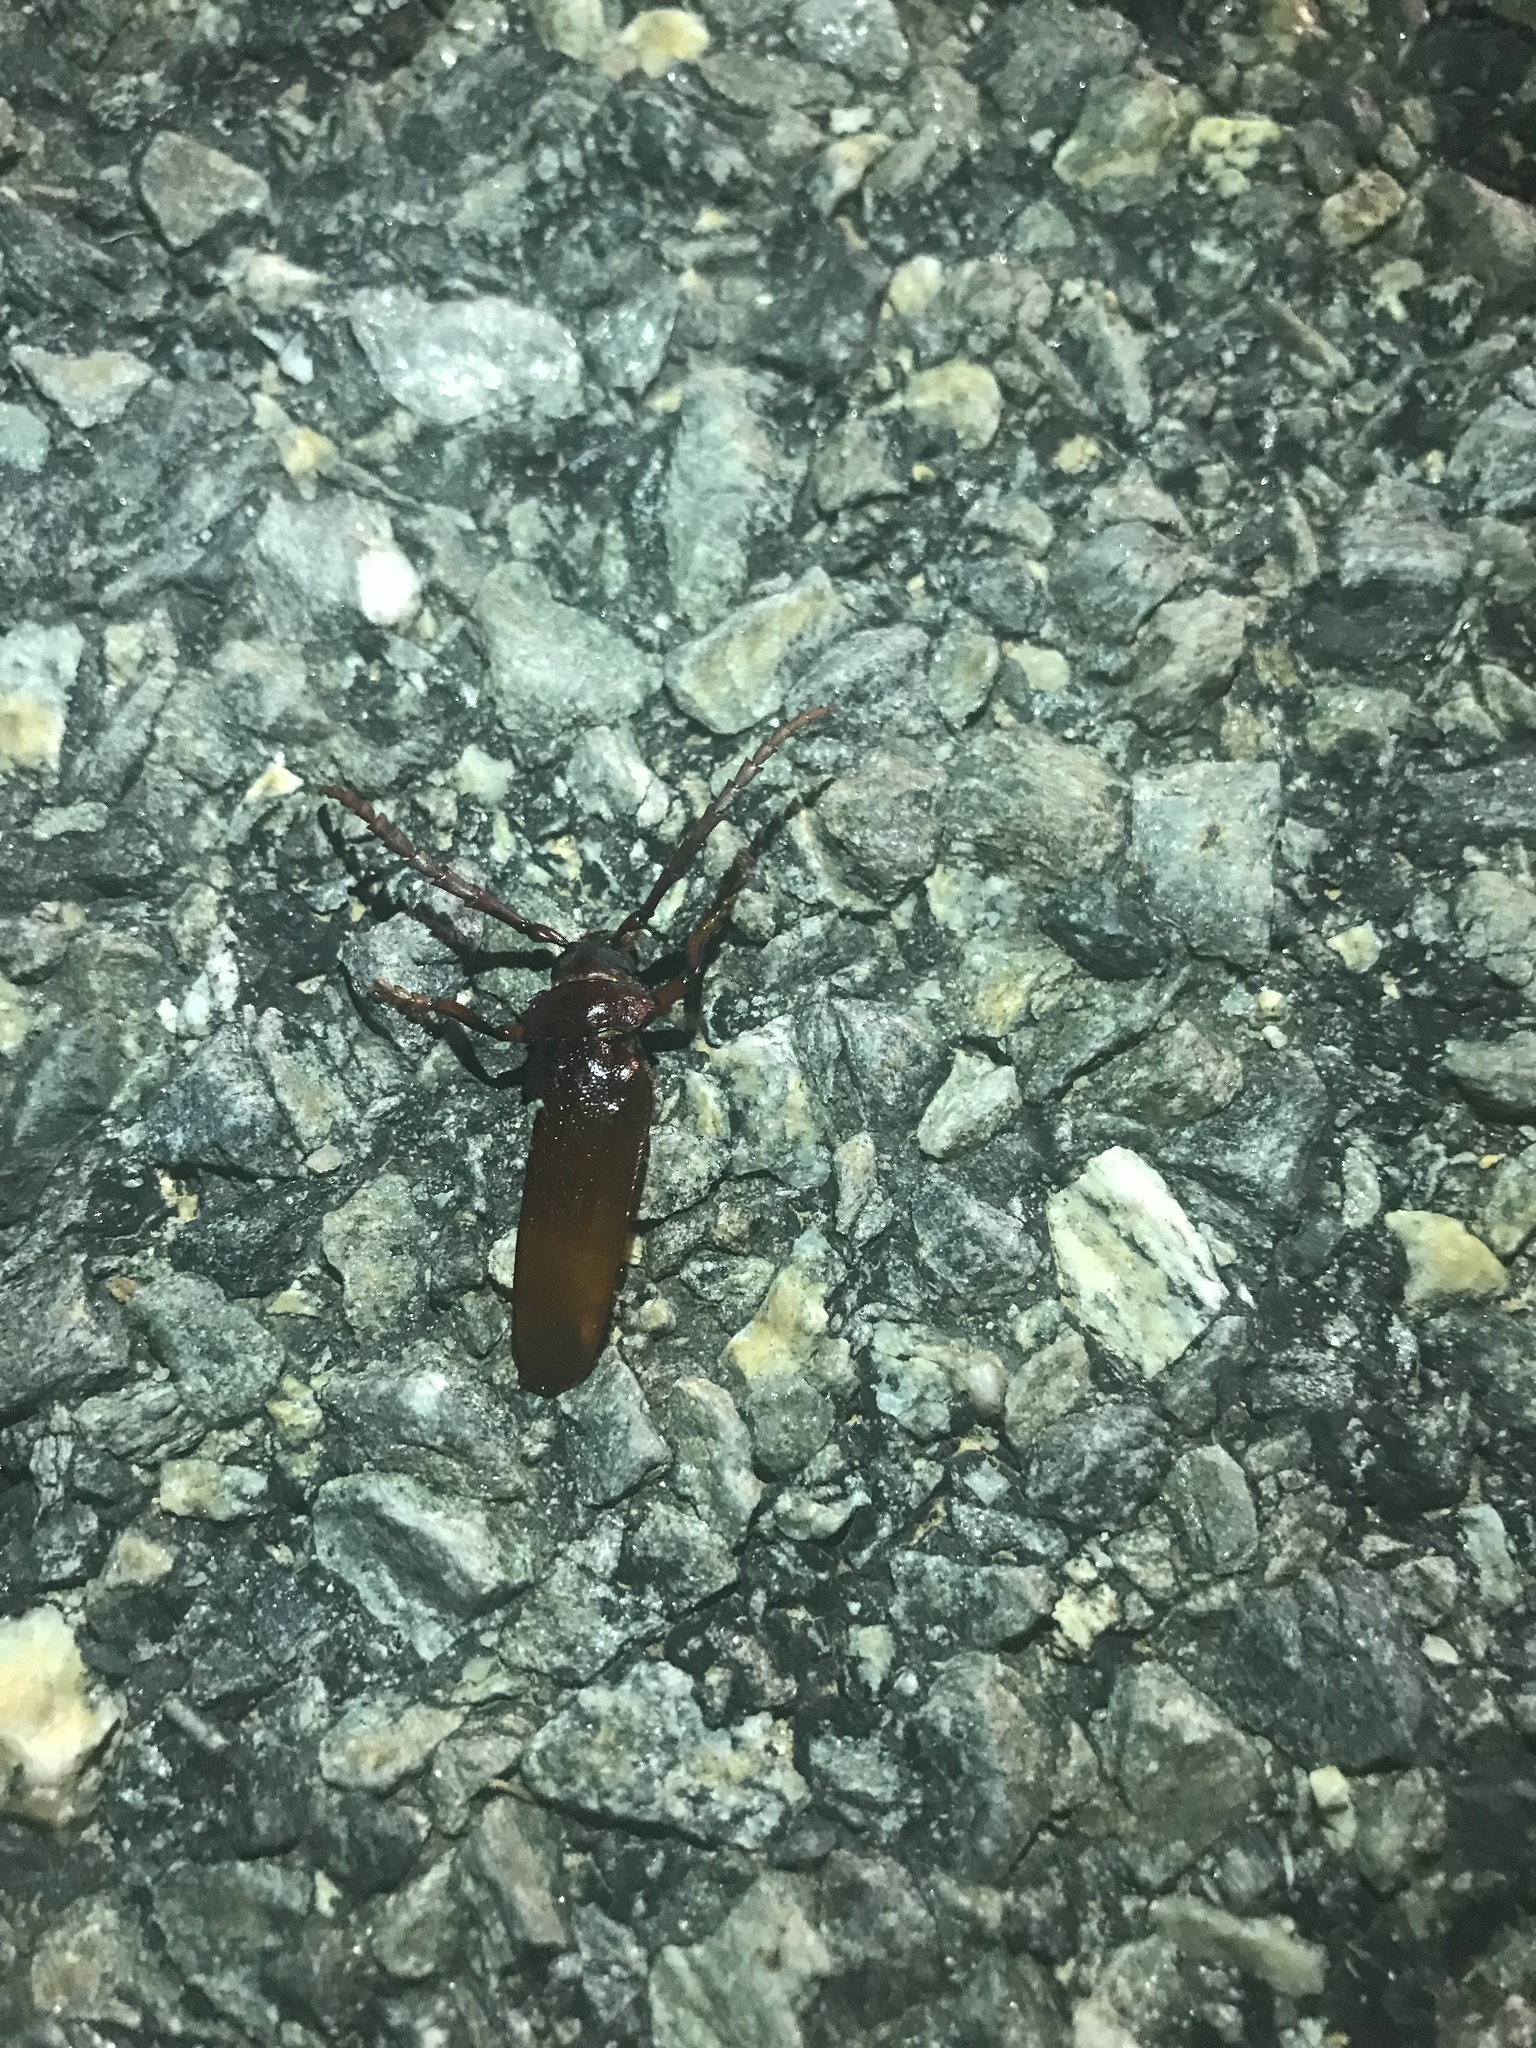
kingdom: Animalia
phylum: Arthropoda
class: Insecta
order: Coleoptera
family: Cerambycidae
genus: Prionus
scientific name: Prionus pocularis
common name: Tooth-necked longhorn beetle
